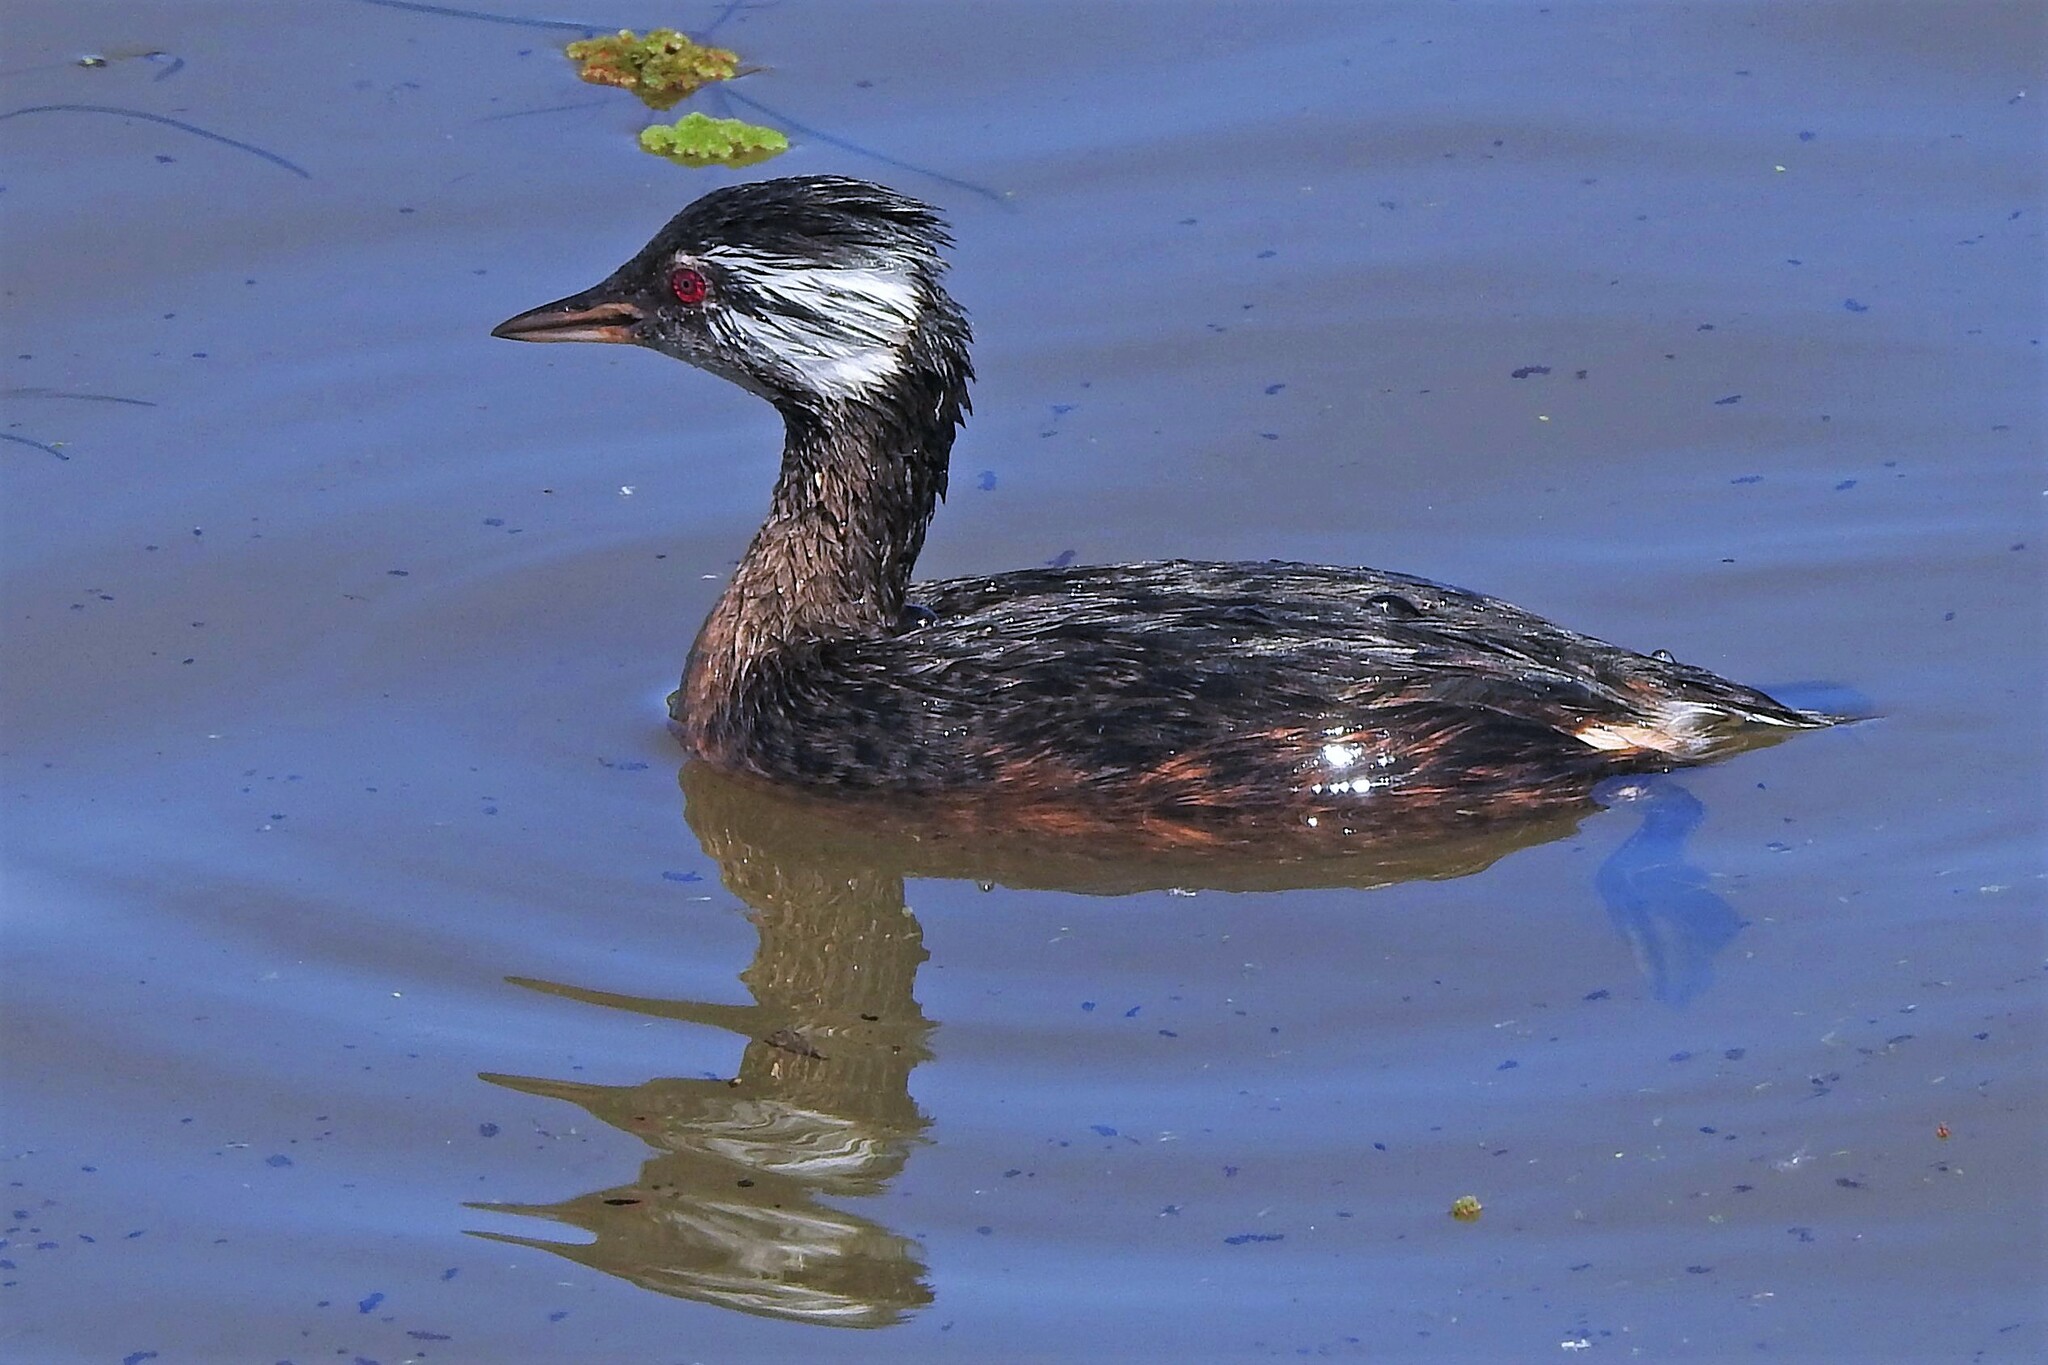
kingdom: Animalia
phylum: Chordata
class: Aves
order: Podicipediformes
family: Podicipedidae
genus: Rollandia
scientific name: Rollandia rolland
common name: White-tufted grebe
